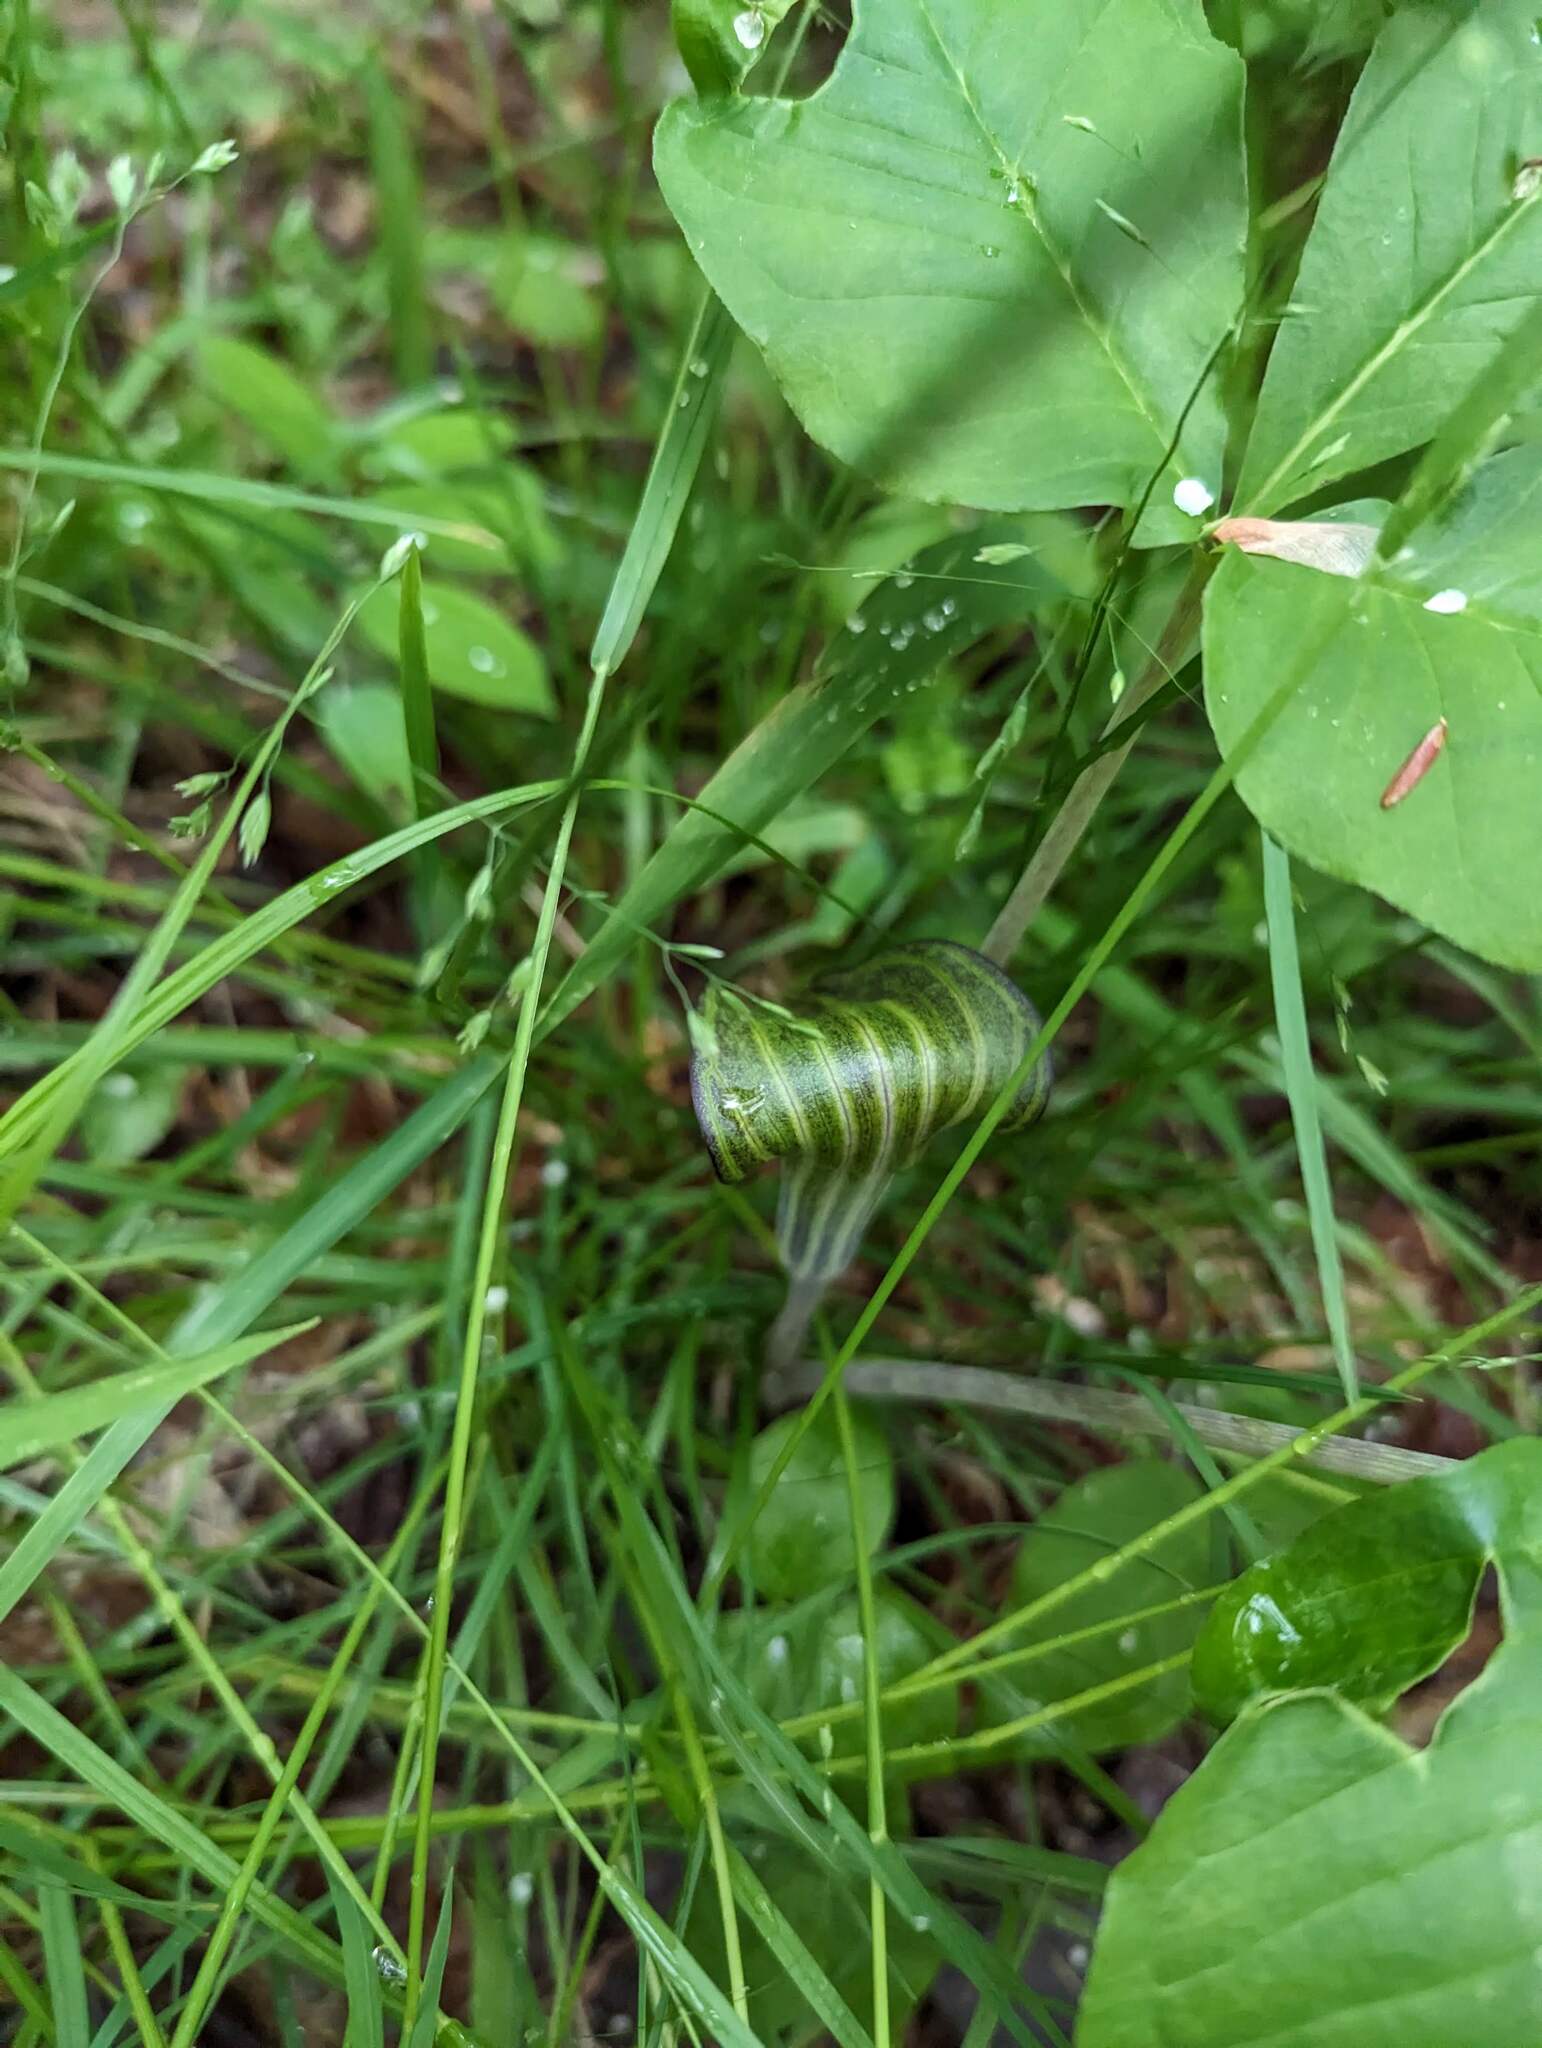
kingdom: Plantae
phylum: Tracheophyta
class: Liliopsida
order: Alismatales
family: Araceae
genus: Arisaema
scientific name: Arisaema triphyllum
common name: Jack-in-the-pulpit
